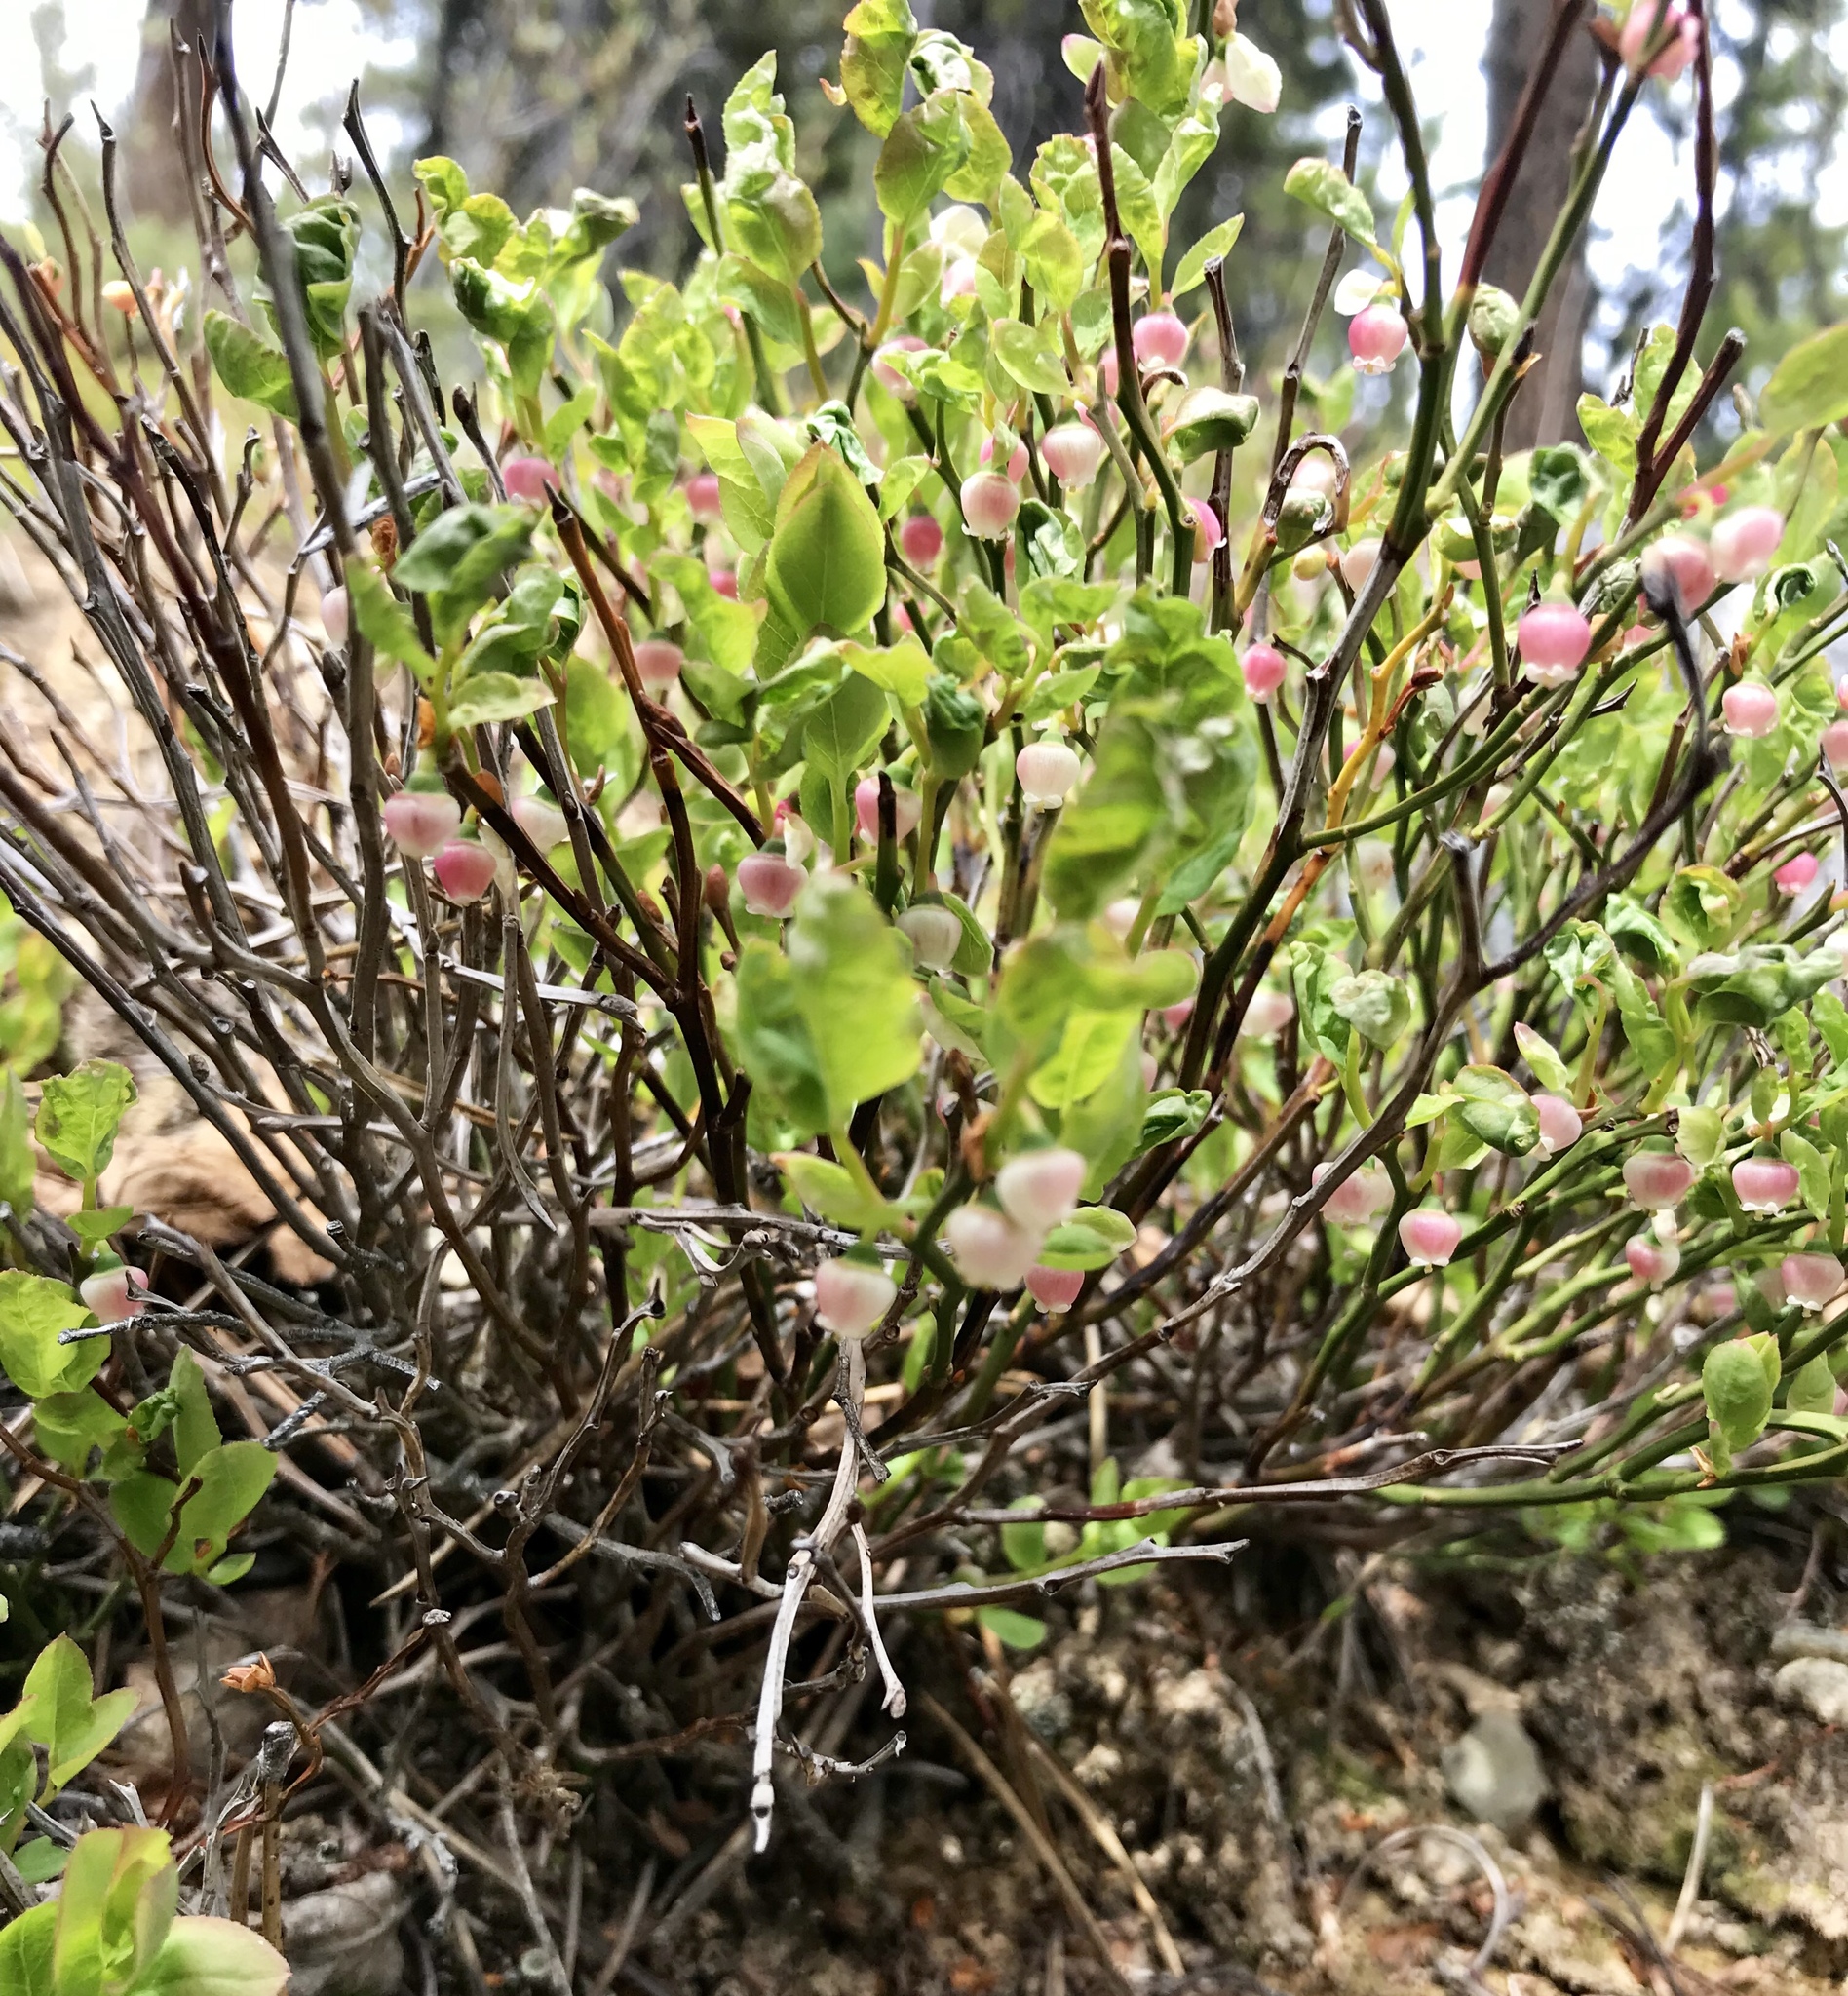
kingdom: Plantae
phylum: Tracheophyta
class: Magnoliopsida
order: Ericales
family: Ericaceae
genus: Vaccinium
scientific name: Vaccinium scoparium
